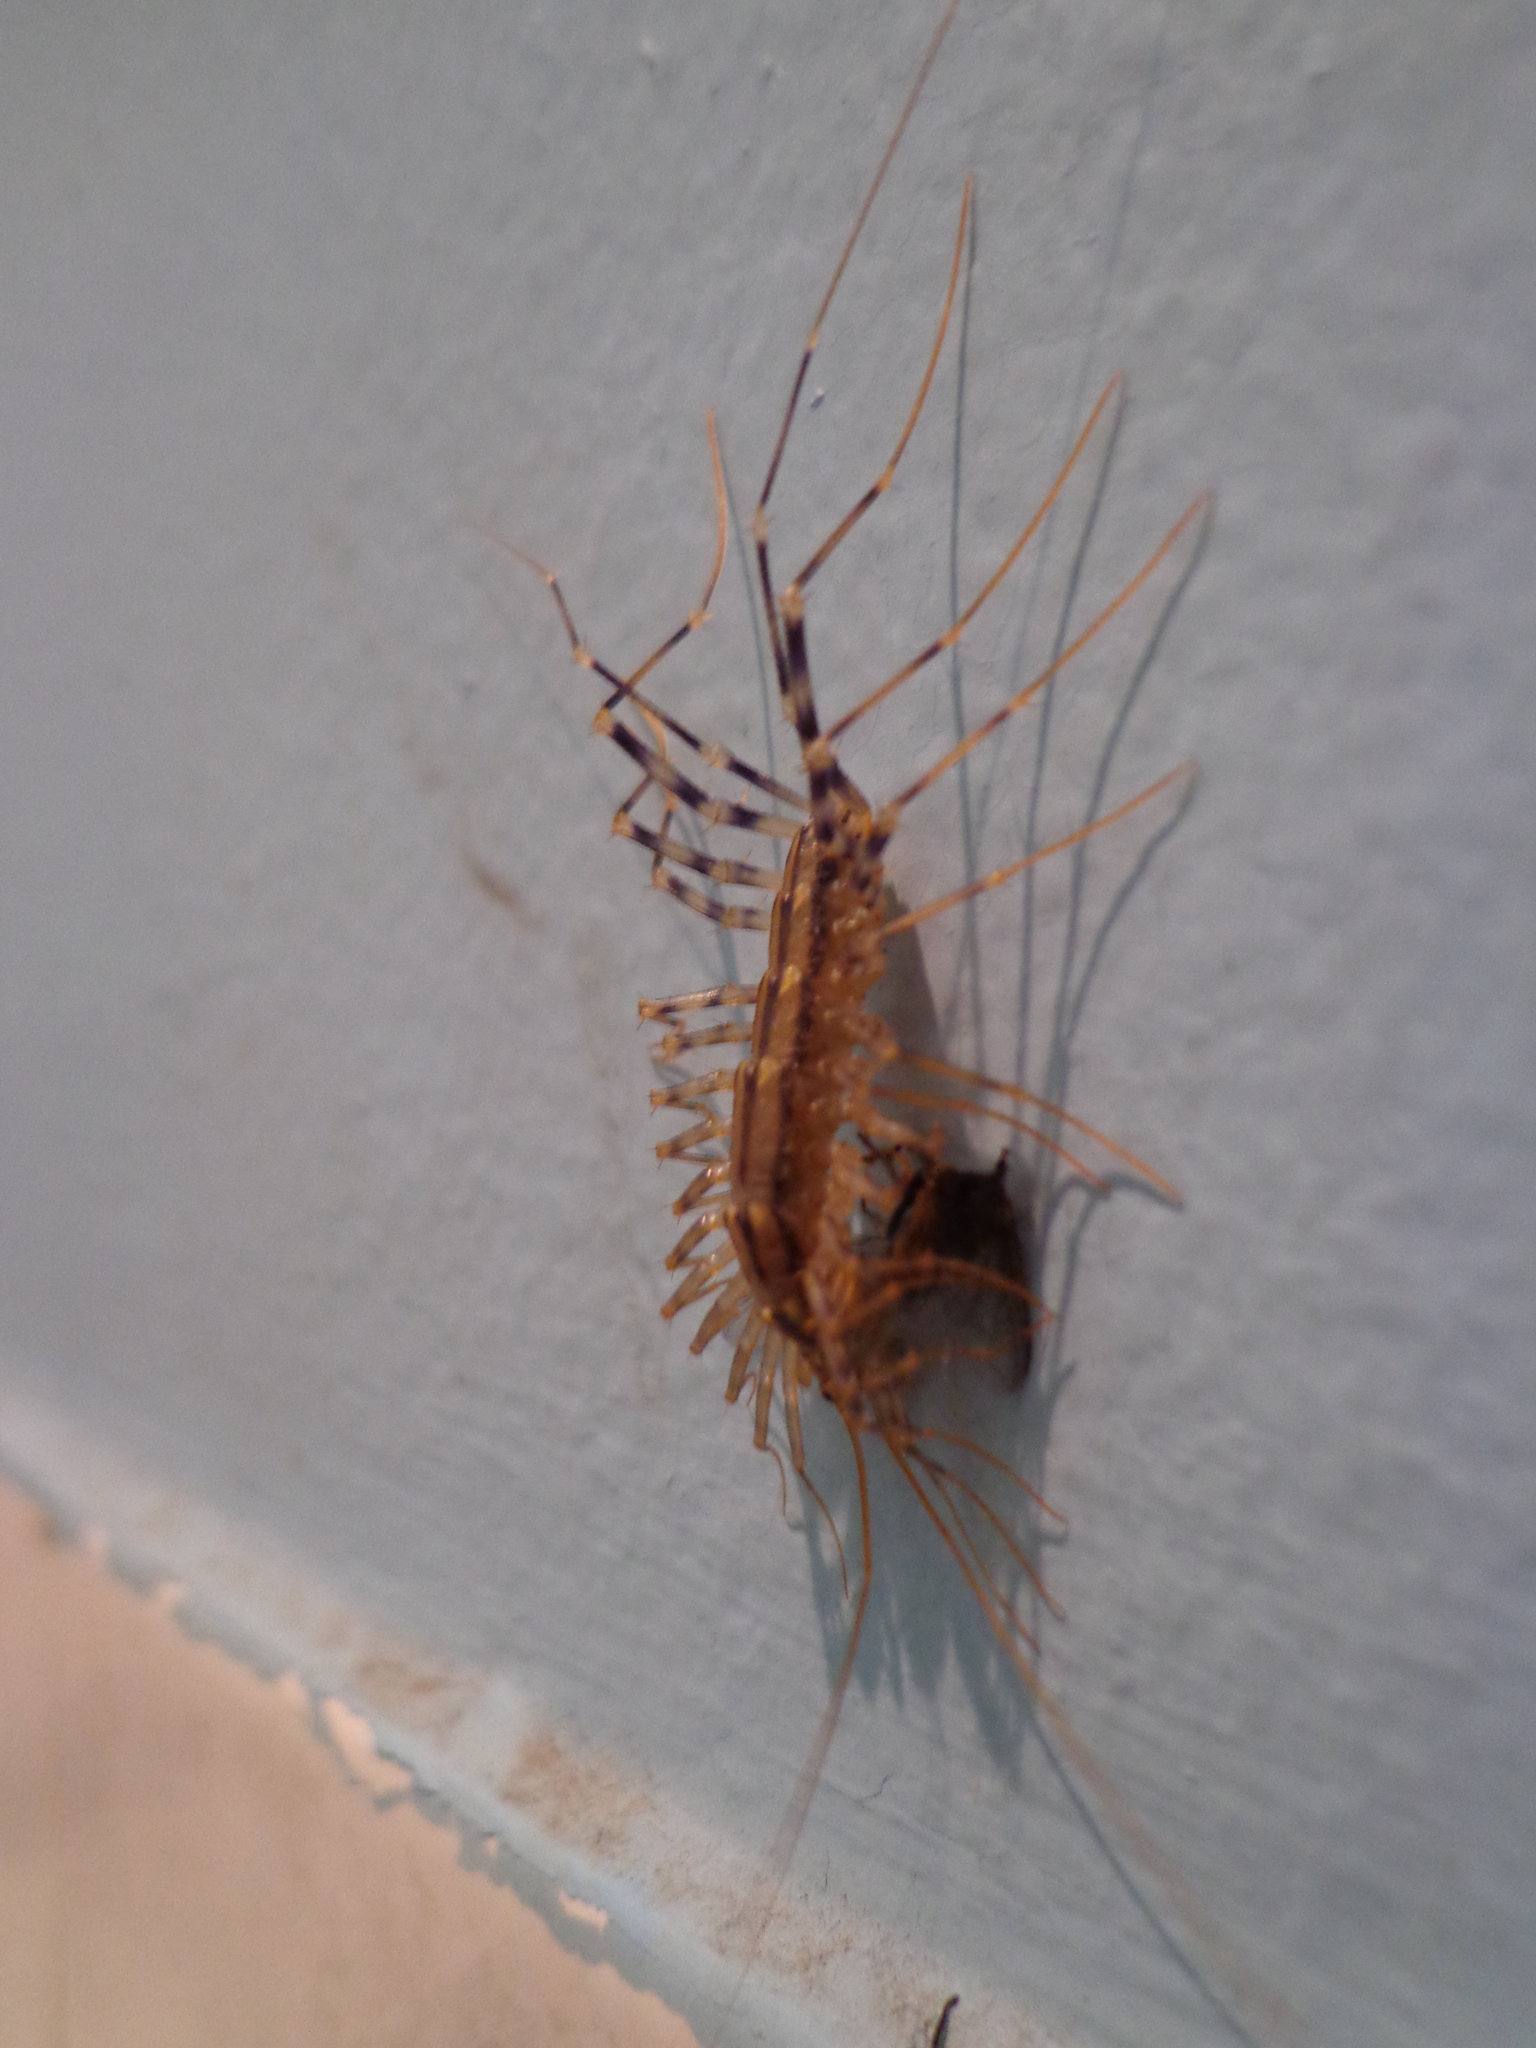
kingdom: Animalia
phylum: Arthropoda
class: Chilopoda
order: Scutigeromorpha
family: Scutigeridae
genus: Scutigera
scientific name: Scutigera coleoptrata
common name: House centipede
